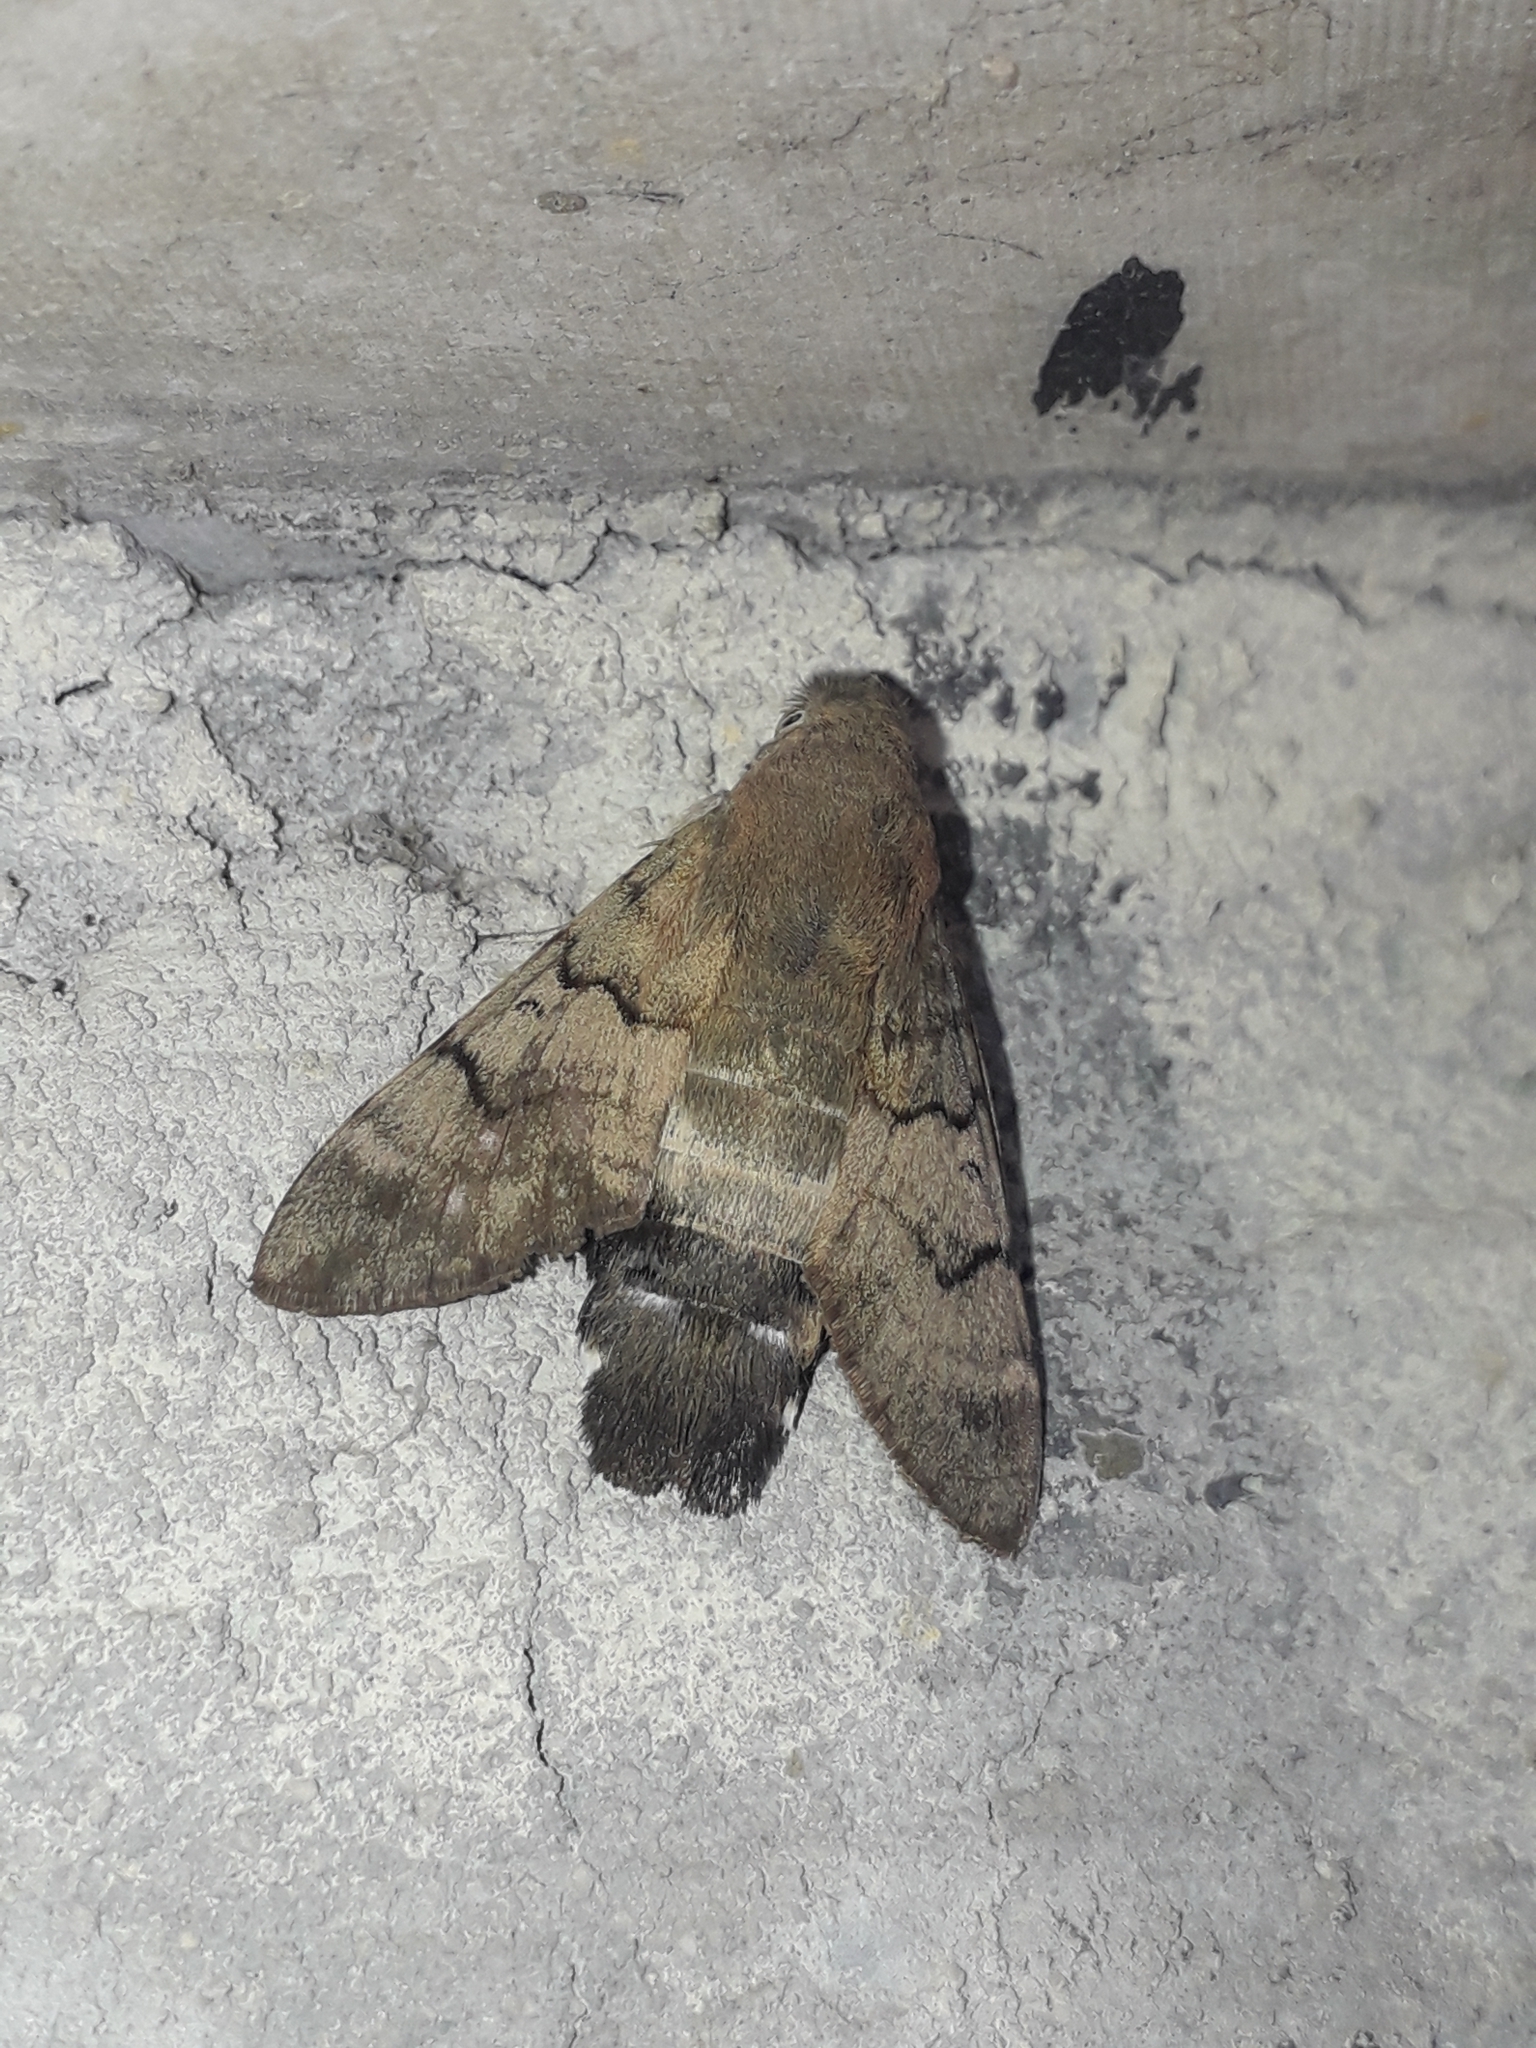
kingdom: Animalia
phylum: Arthropoda
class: Insecta
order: Lepidoptera
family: Sphingidae
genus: Macroglossum
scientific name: Macroglossum stellatarum
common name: Humming-bird hawk-moth
